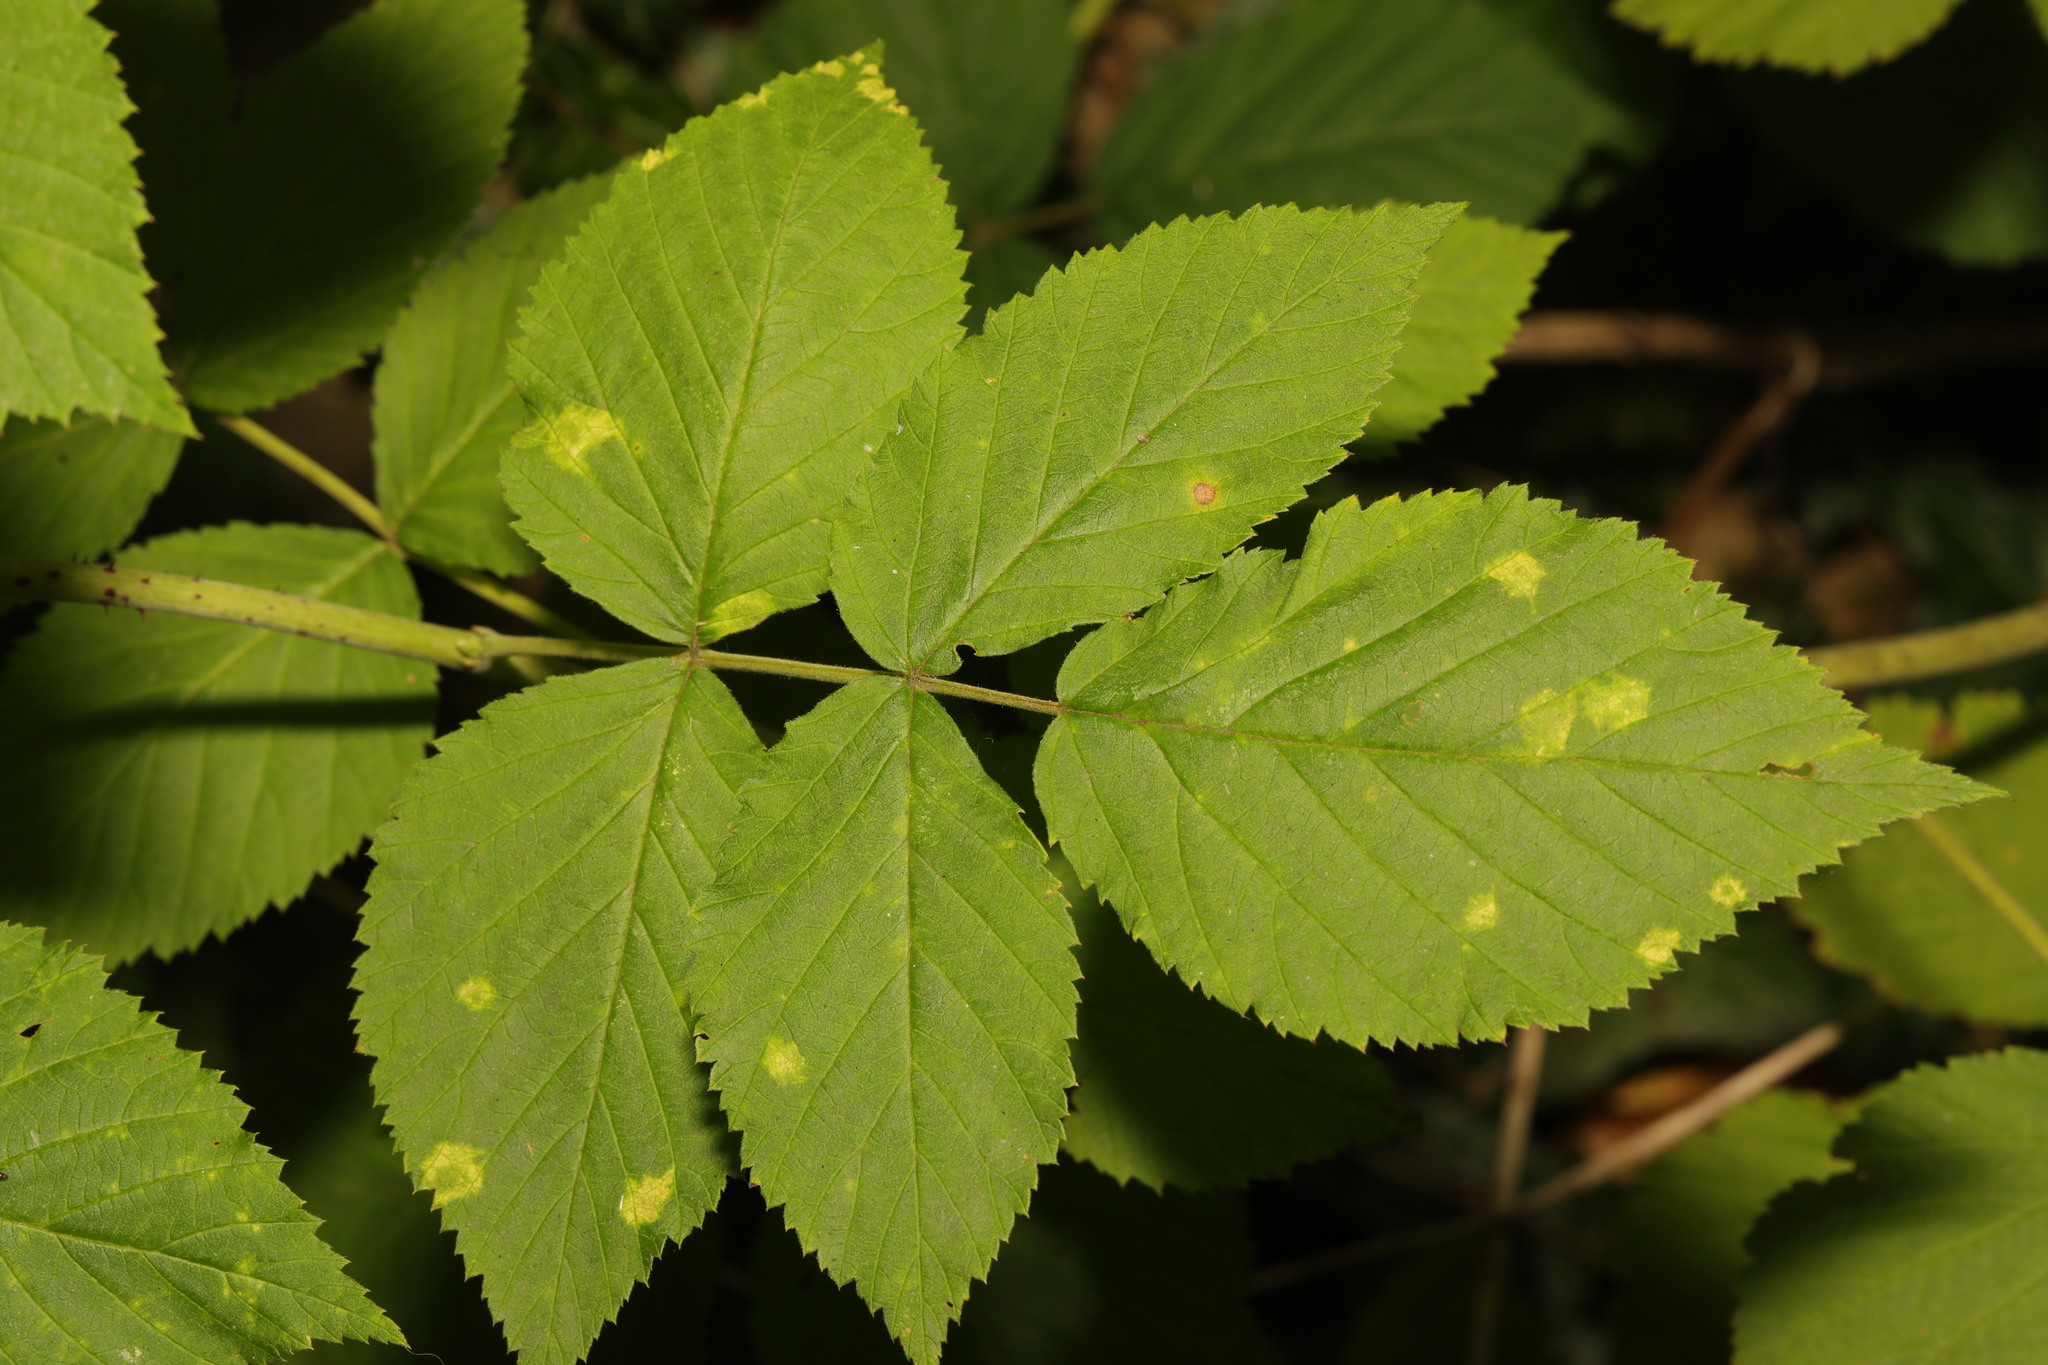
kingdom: Plantae
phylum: Tracheophyta
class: Magnoliopsida
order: Apiales
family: Apiaceae
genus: Aegopodium
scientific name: Aegopodium podagraria
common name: Ground-elder
